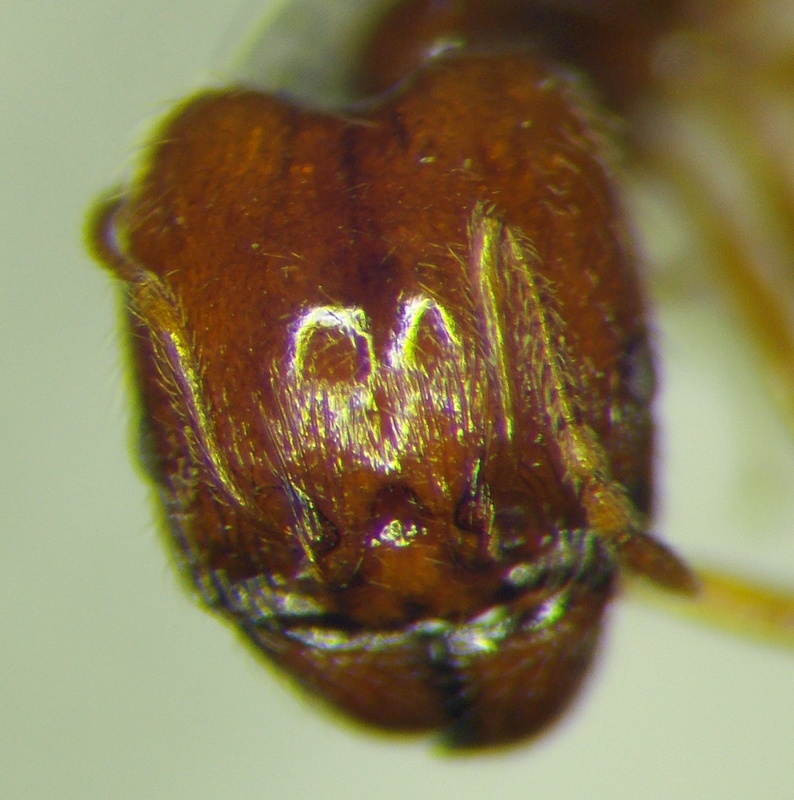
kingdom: Animalia
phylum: Arthropoda
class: Insecta
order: Hymenoptera
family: Formicidae
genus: Pheidole
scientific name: Pheidole pallidula
